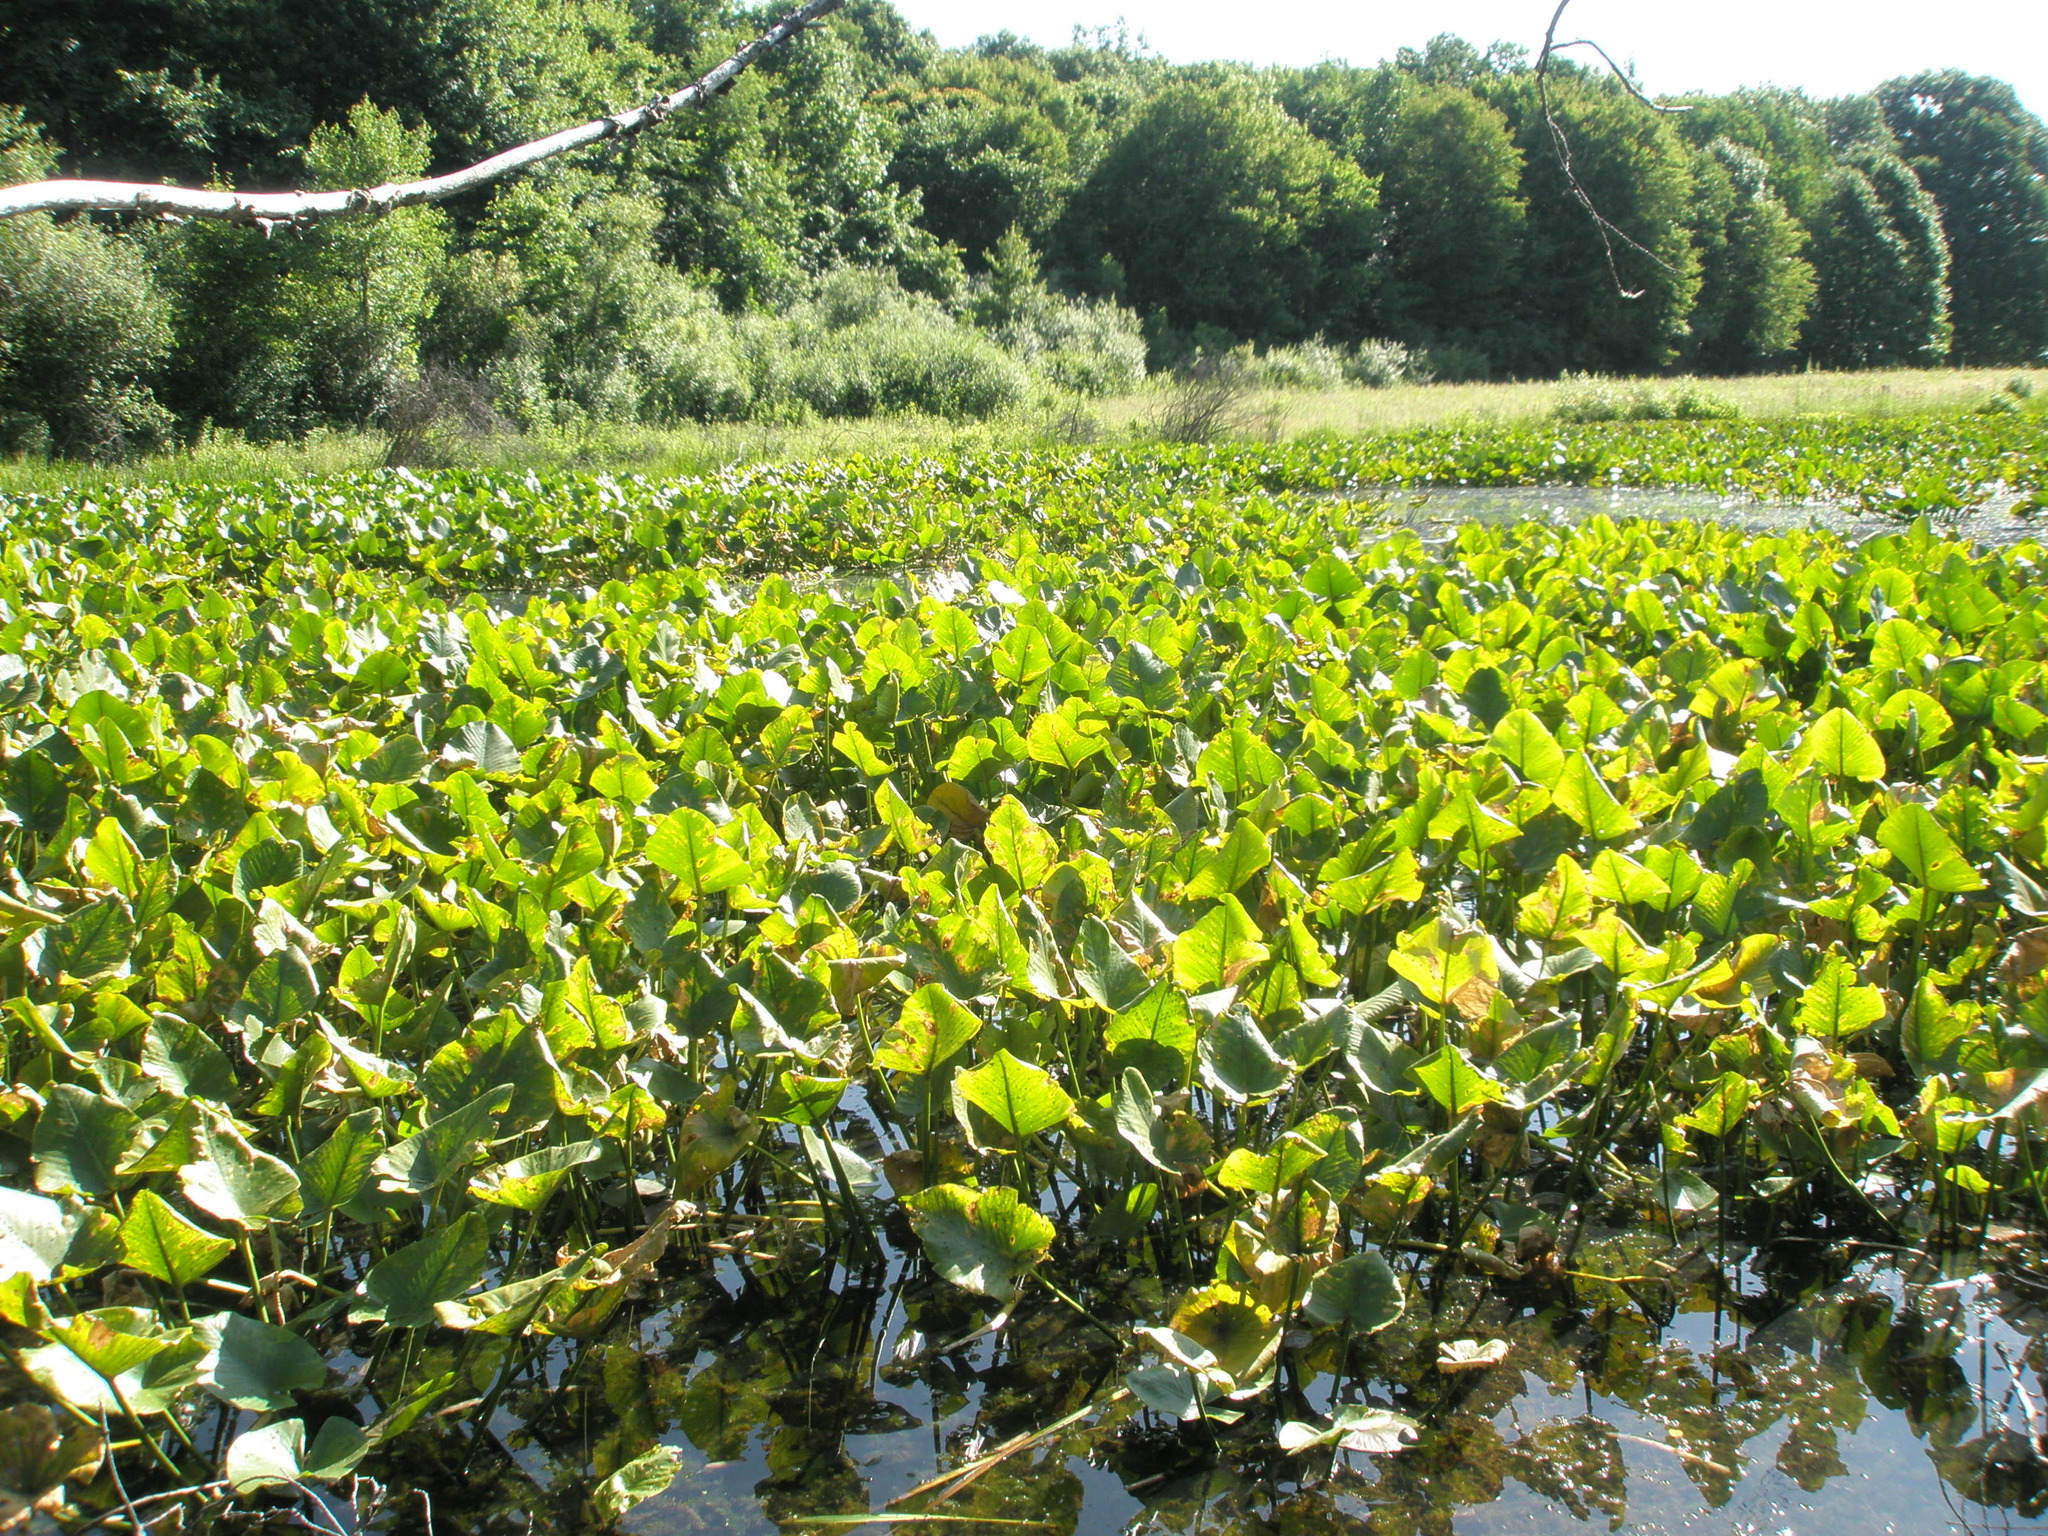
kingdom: Plantae
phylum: Tracheophyta
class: Magnoliopsida
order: Nymphaeales
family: Nymphaeaceae
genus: Nuphar
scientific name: Nuphar advena
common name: Spatter-dock
